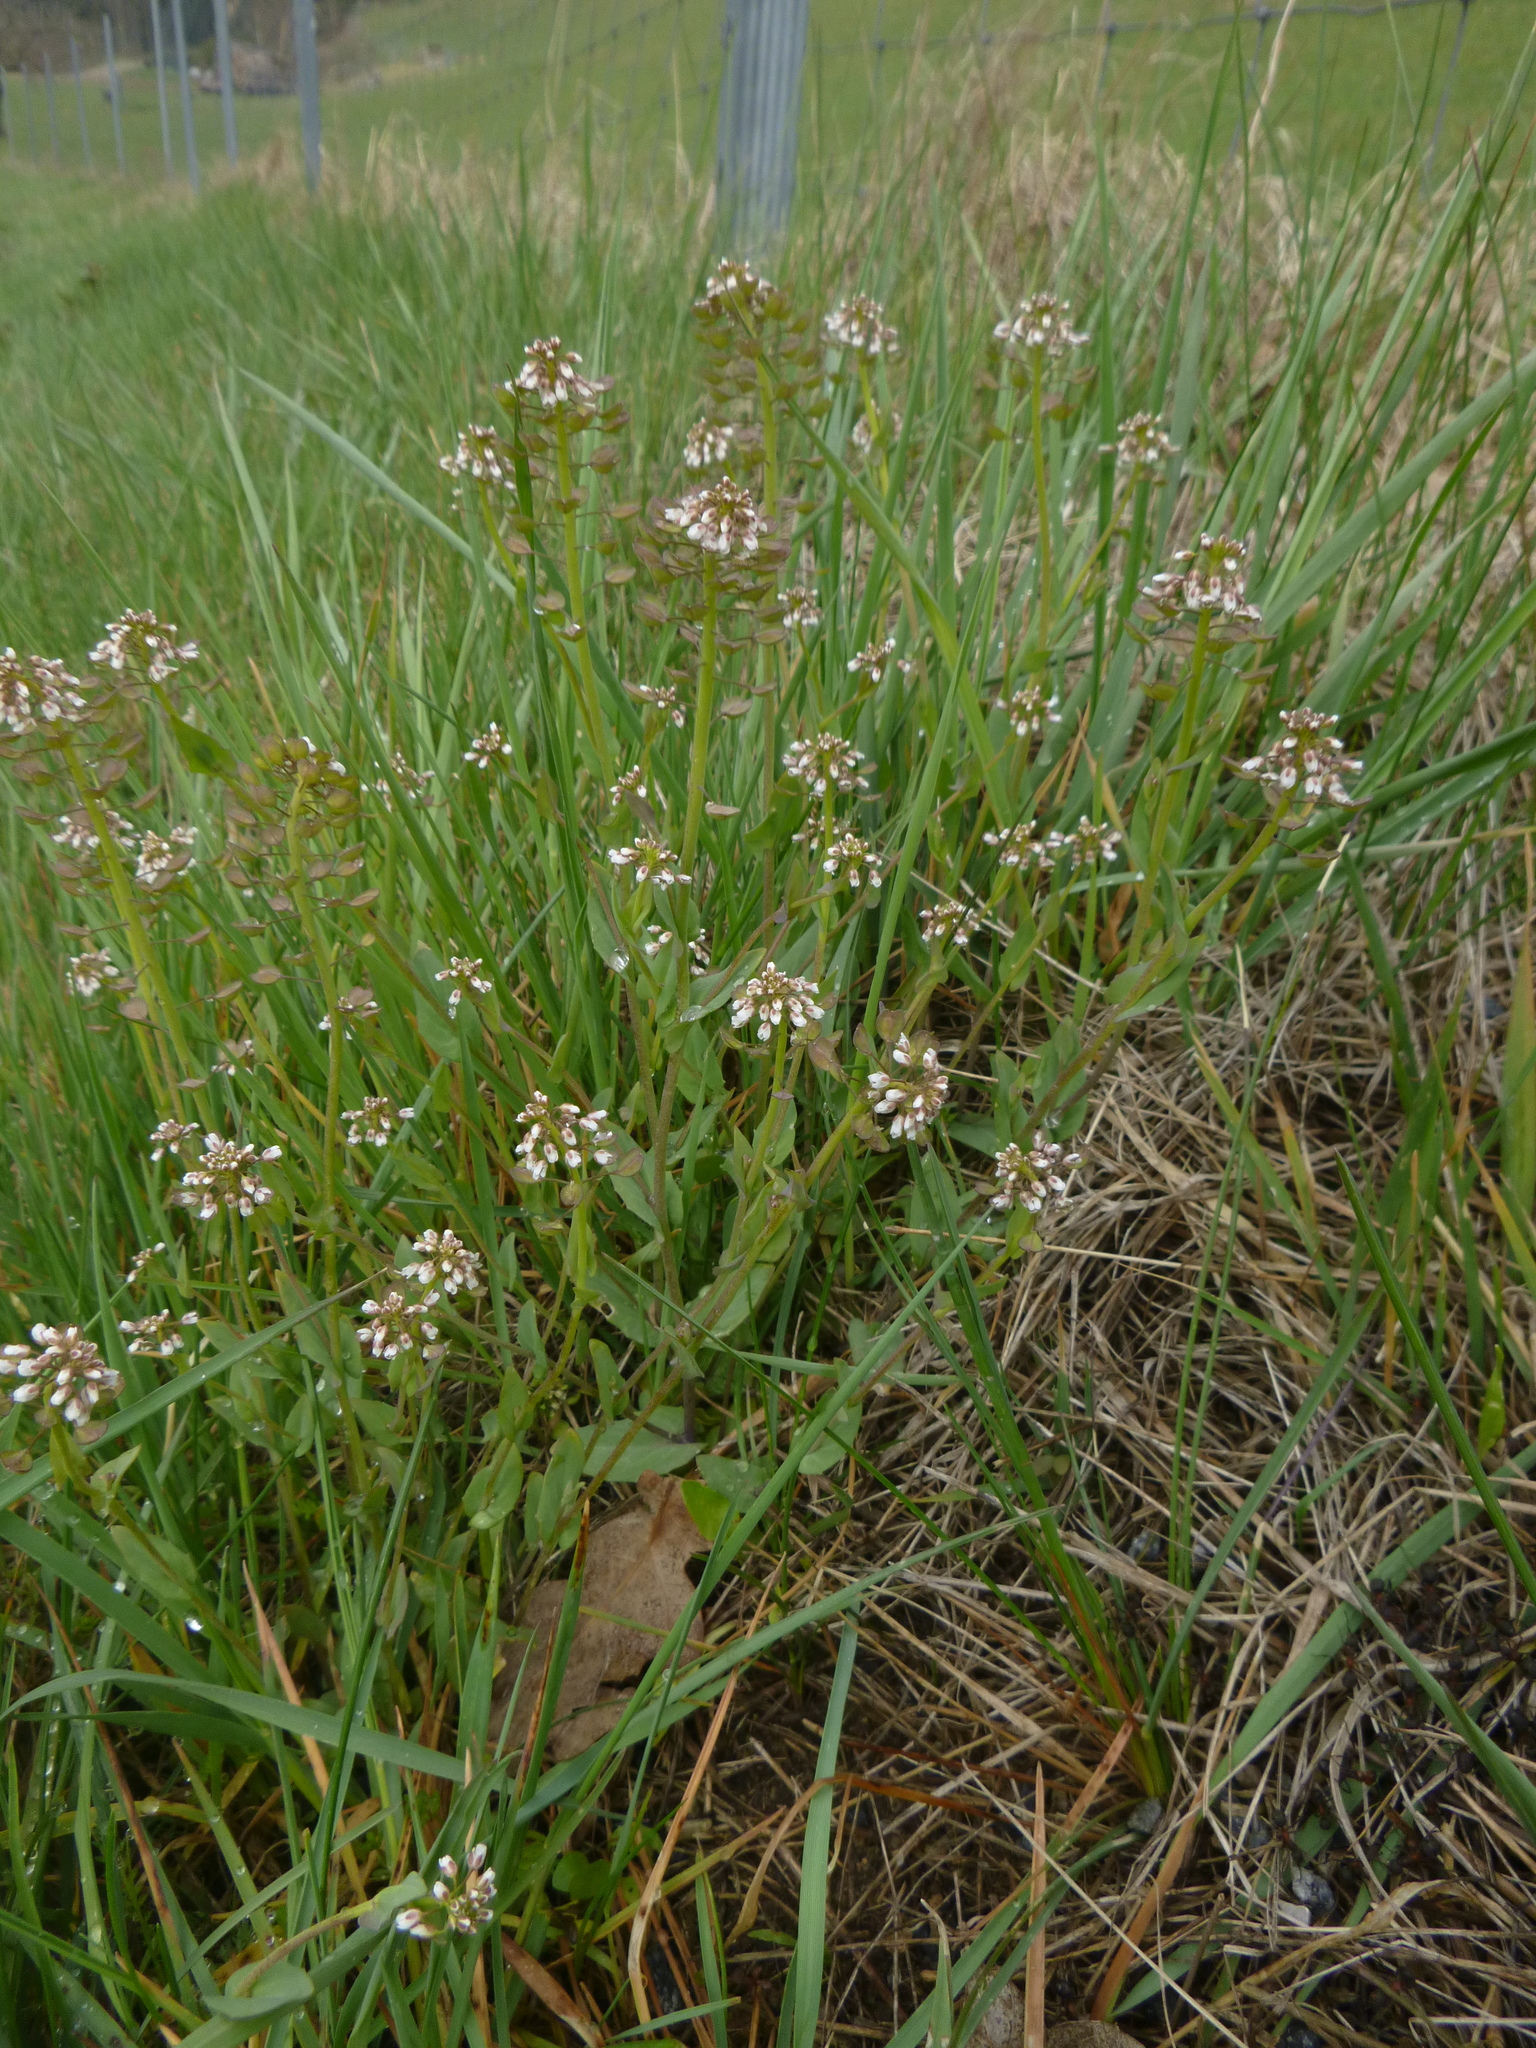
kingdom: Plantae
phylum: Tracheophyta
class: Magnoliopsida
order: Brassicales
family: Brassicaceae
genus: Noccaea
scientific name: Noccaea perfoliata
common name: Perfoliate pennycress
